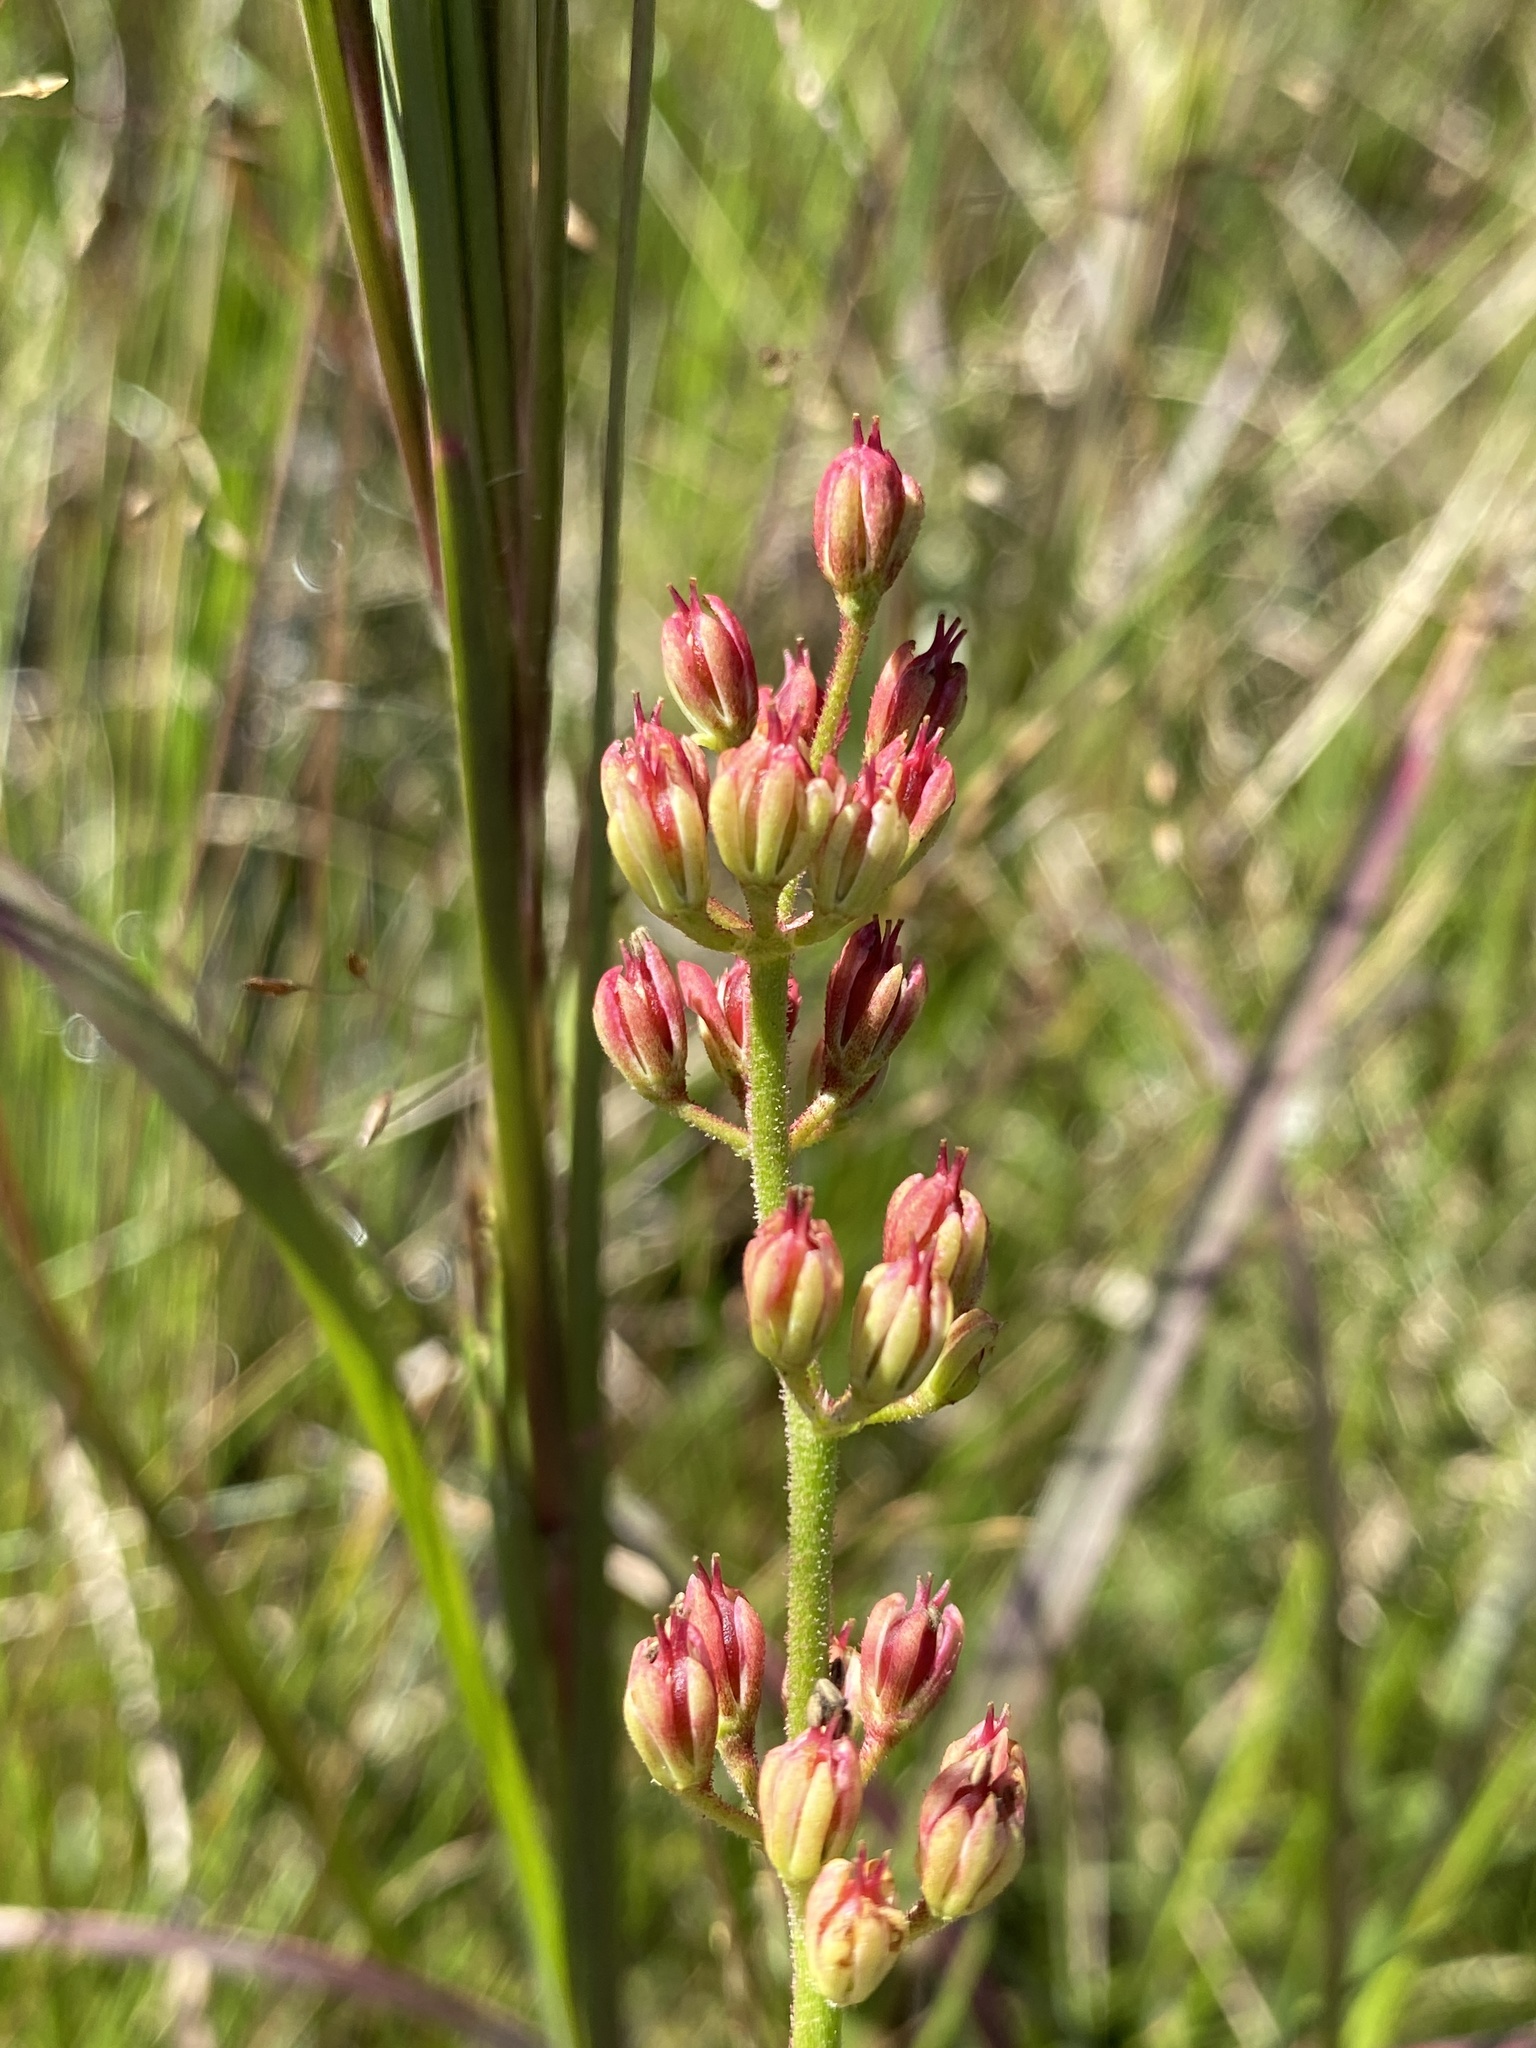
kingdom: Plantae
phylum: Tracheophyta
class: Liliopsida
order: Alismatales
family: Tofieldiaceae
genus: Triantha
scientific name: Triantha racemosa
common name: Coastal false asphodel
